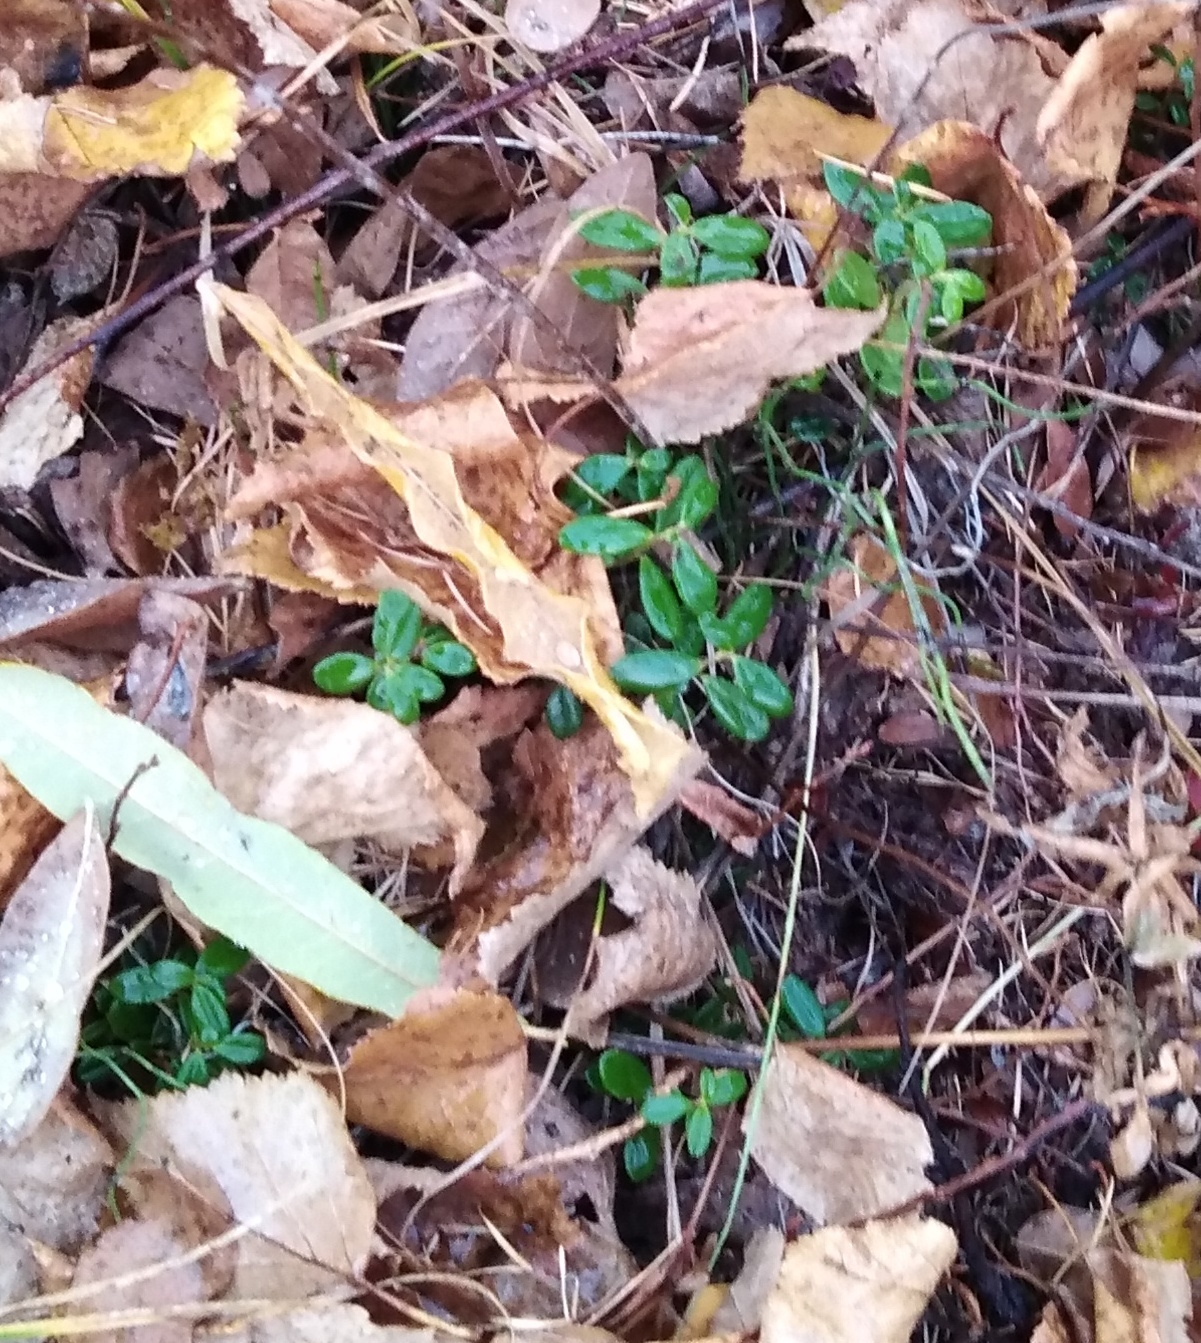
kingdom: Plantae
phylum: Tracheophyta
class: Magnoliopsida
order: Ericales
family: Ericaceae
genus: Vaccinium
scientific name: Vaccinium vitis-idaea
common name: Cowberry
